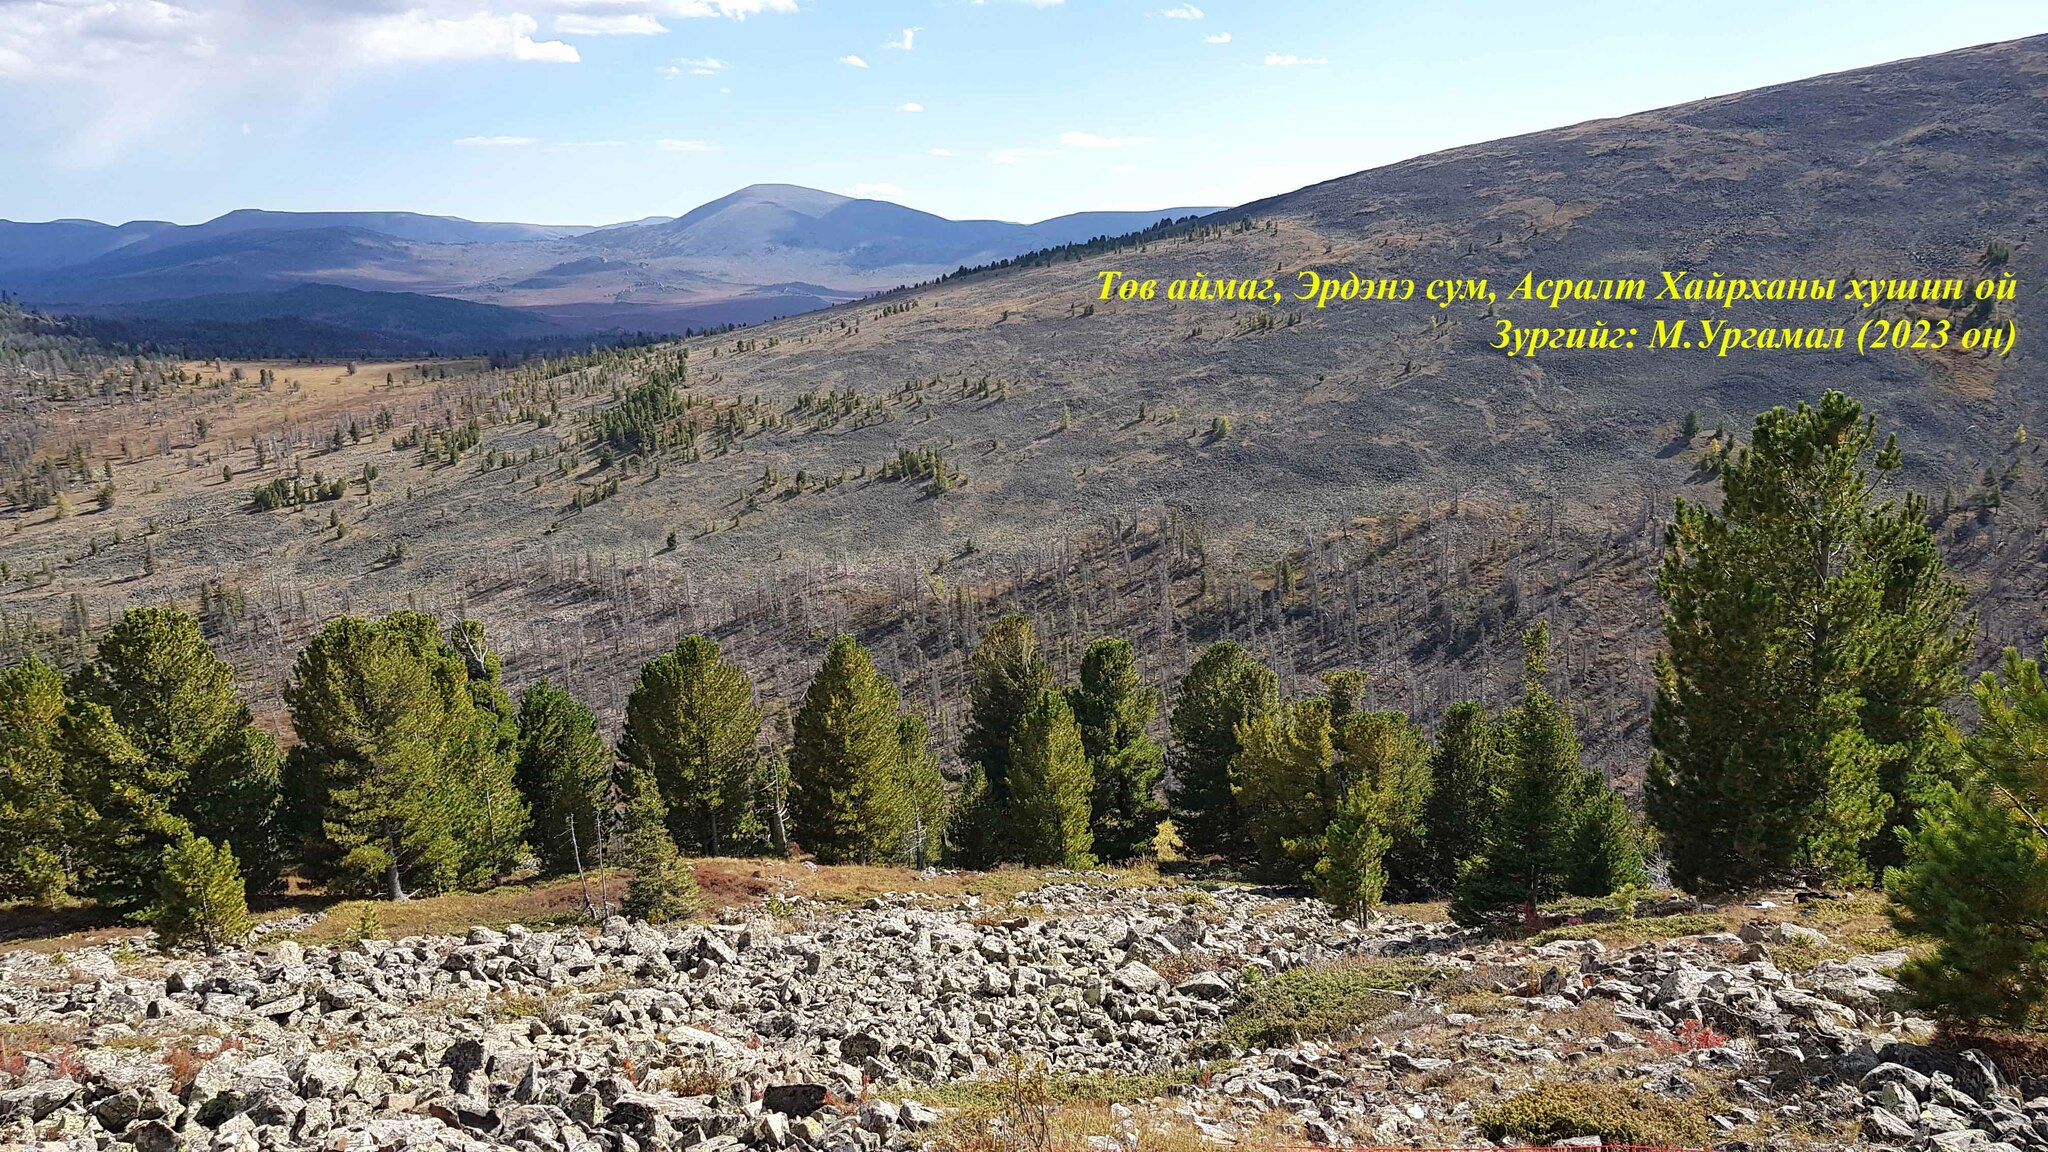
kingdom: Plantae
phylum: Tracheophyta
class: Pinopsida
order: Pinales
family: Pinaceae
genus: Pinus
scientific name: Pinus sibirica
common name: Siberian pine
